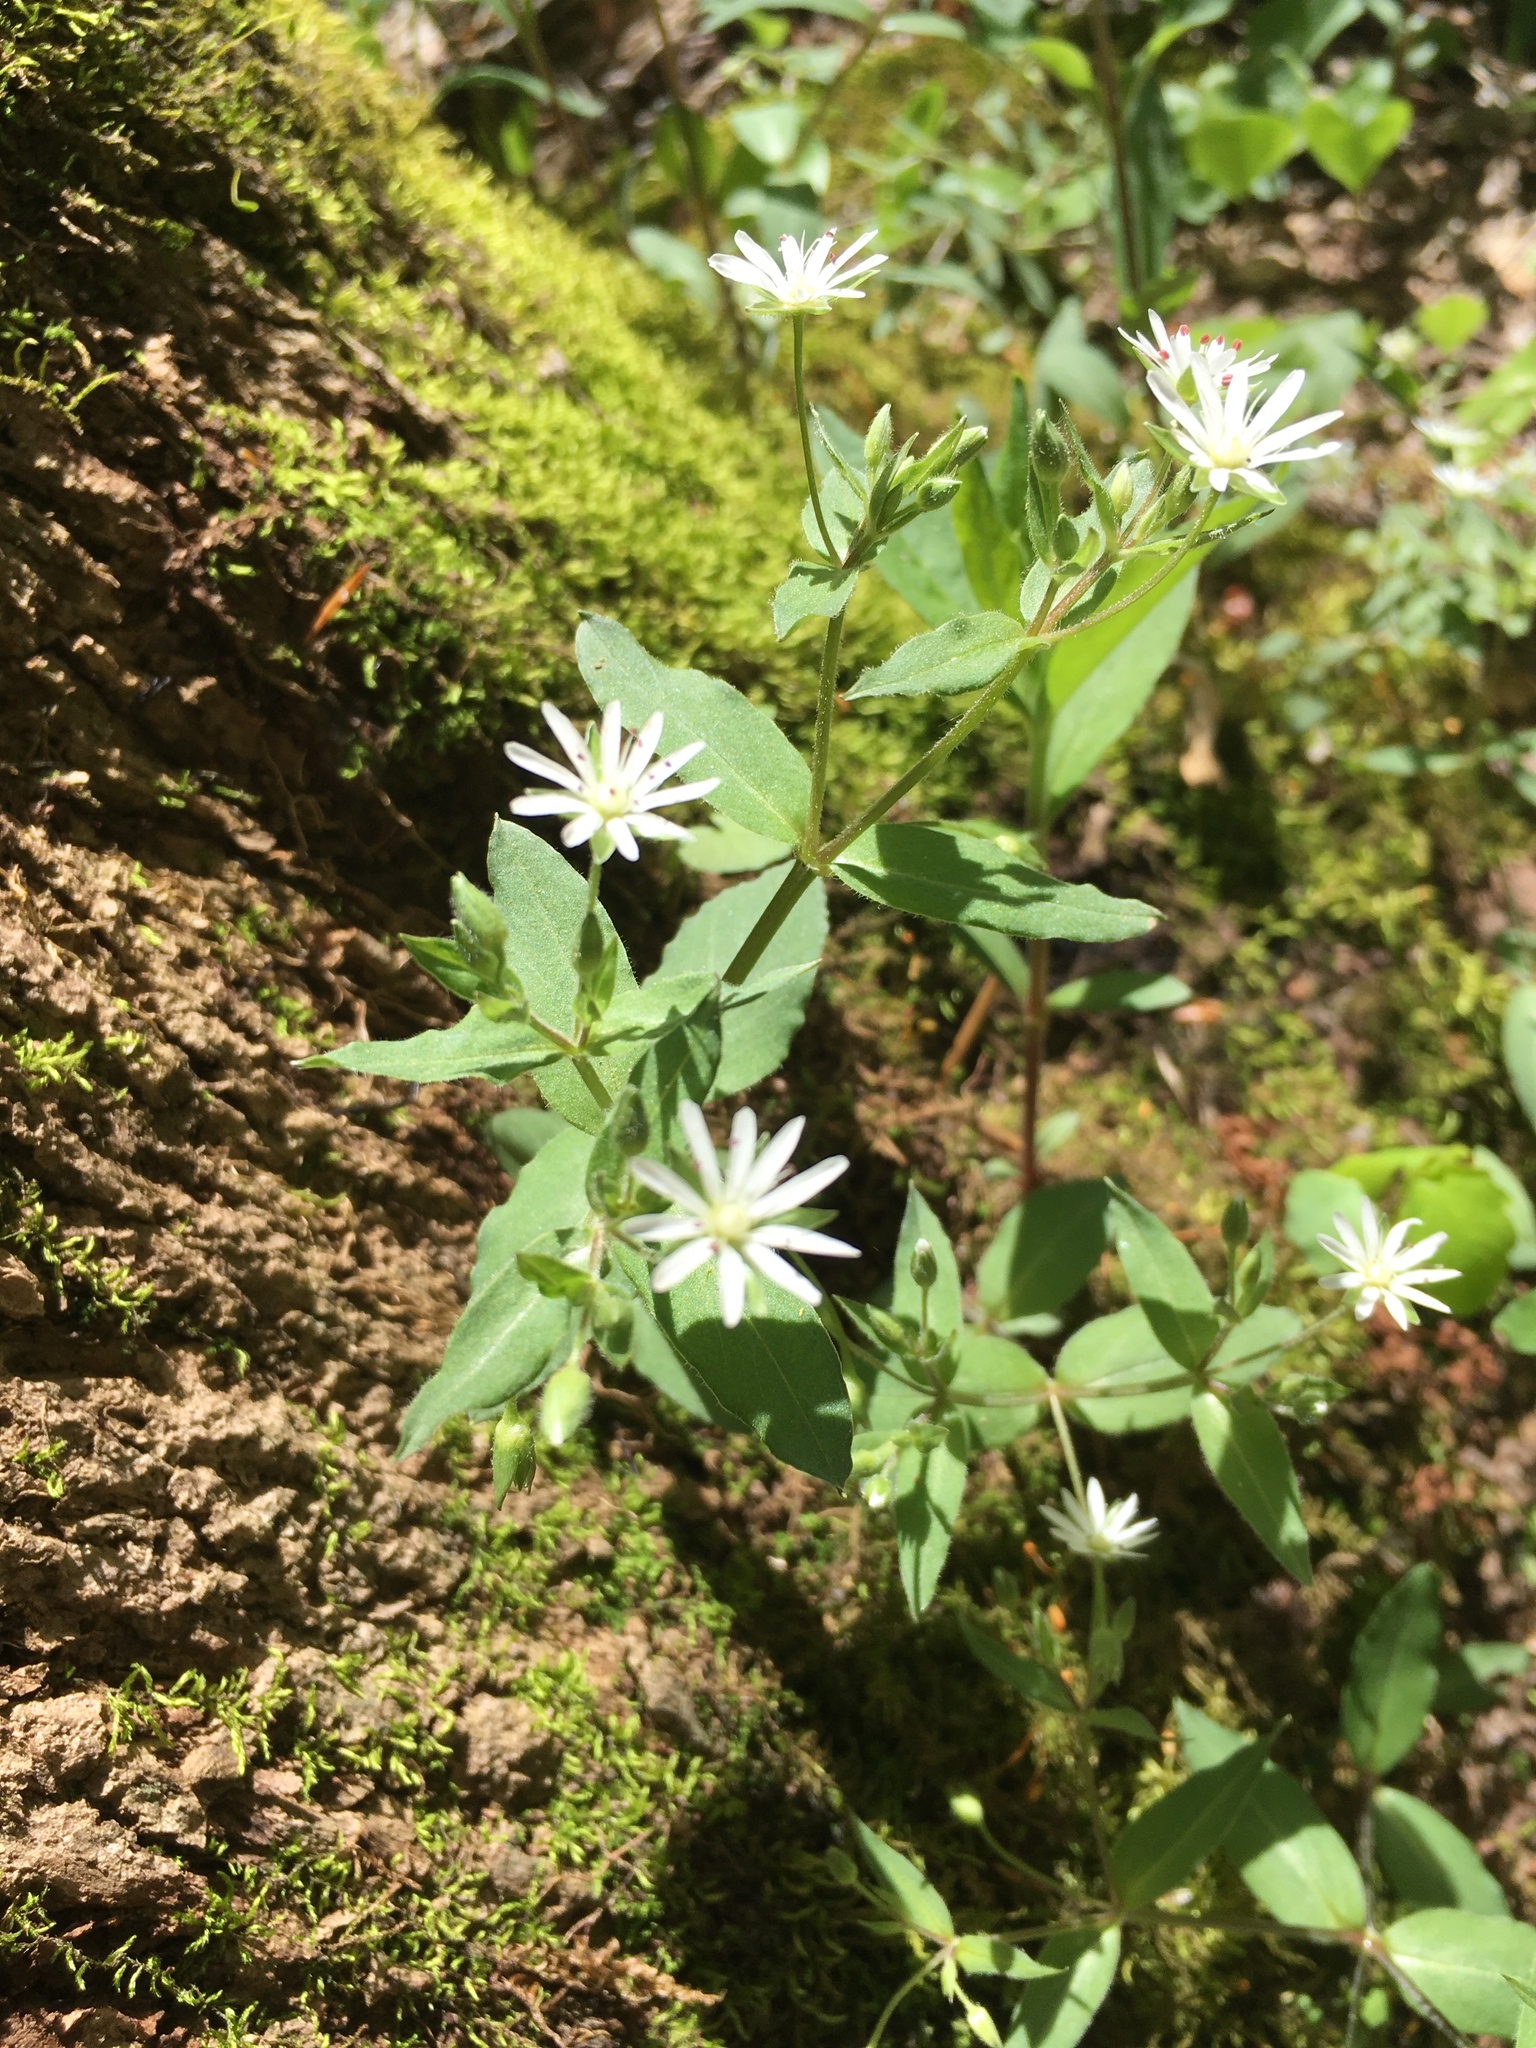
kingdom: Plantae
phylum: Tracheophyta
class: Magnoliopsida
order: Caryophyllales
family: Caryophyllaceae
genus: Stellaria
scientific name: Stellaria pubera
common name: Star chickweed
